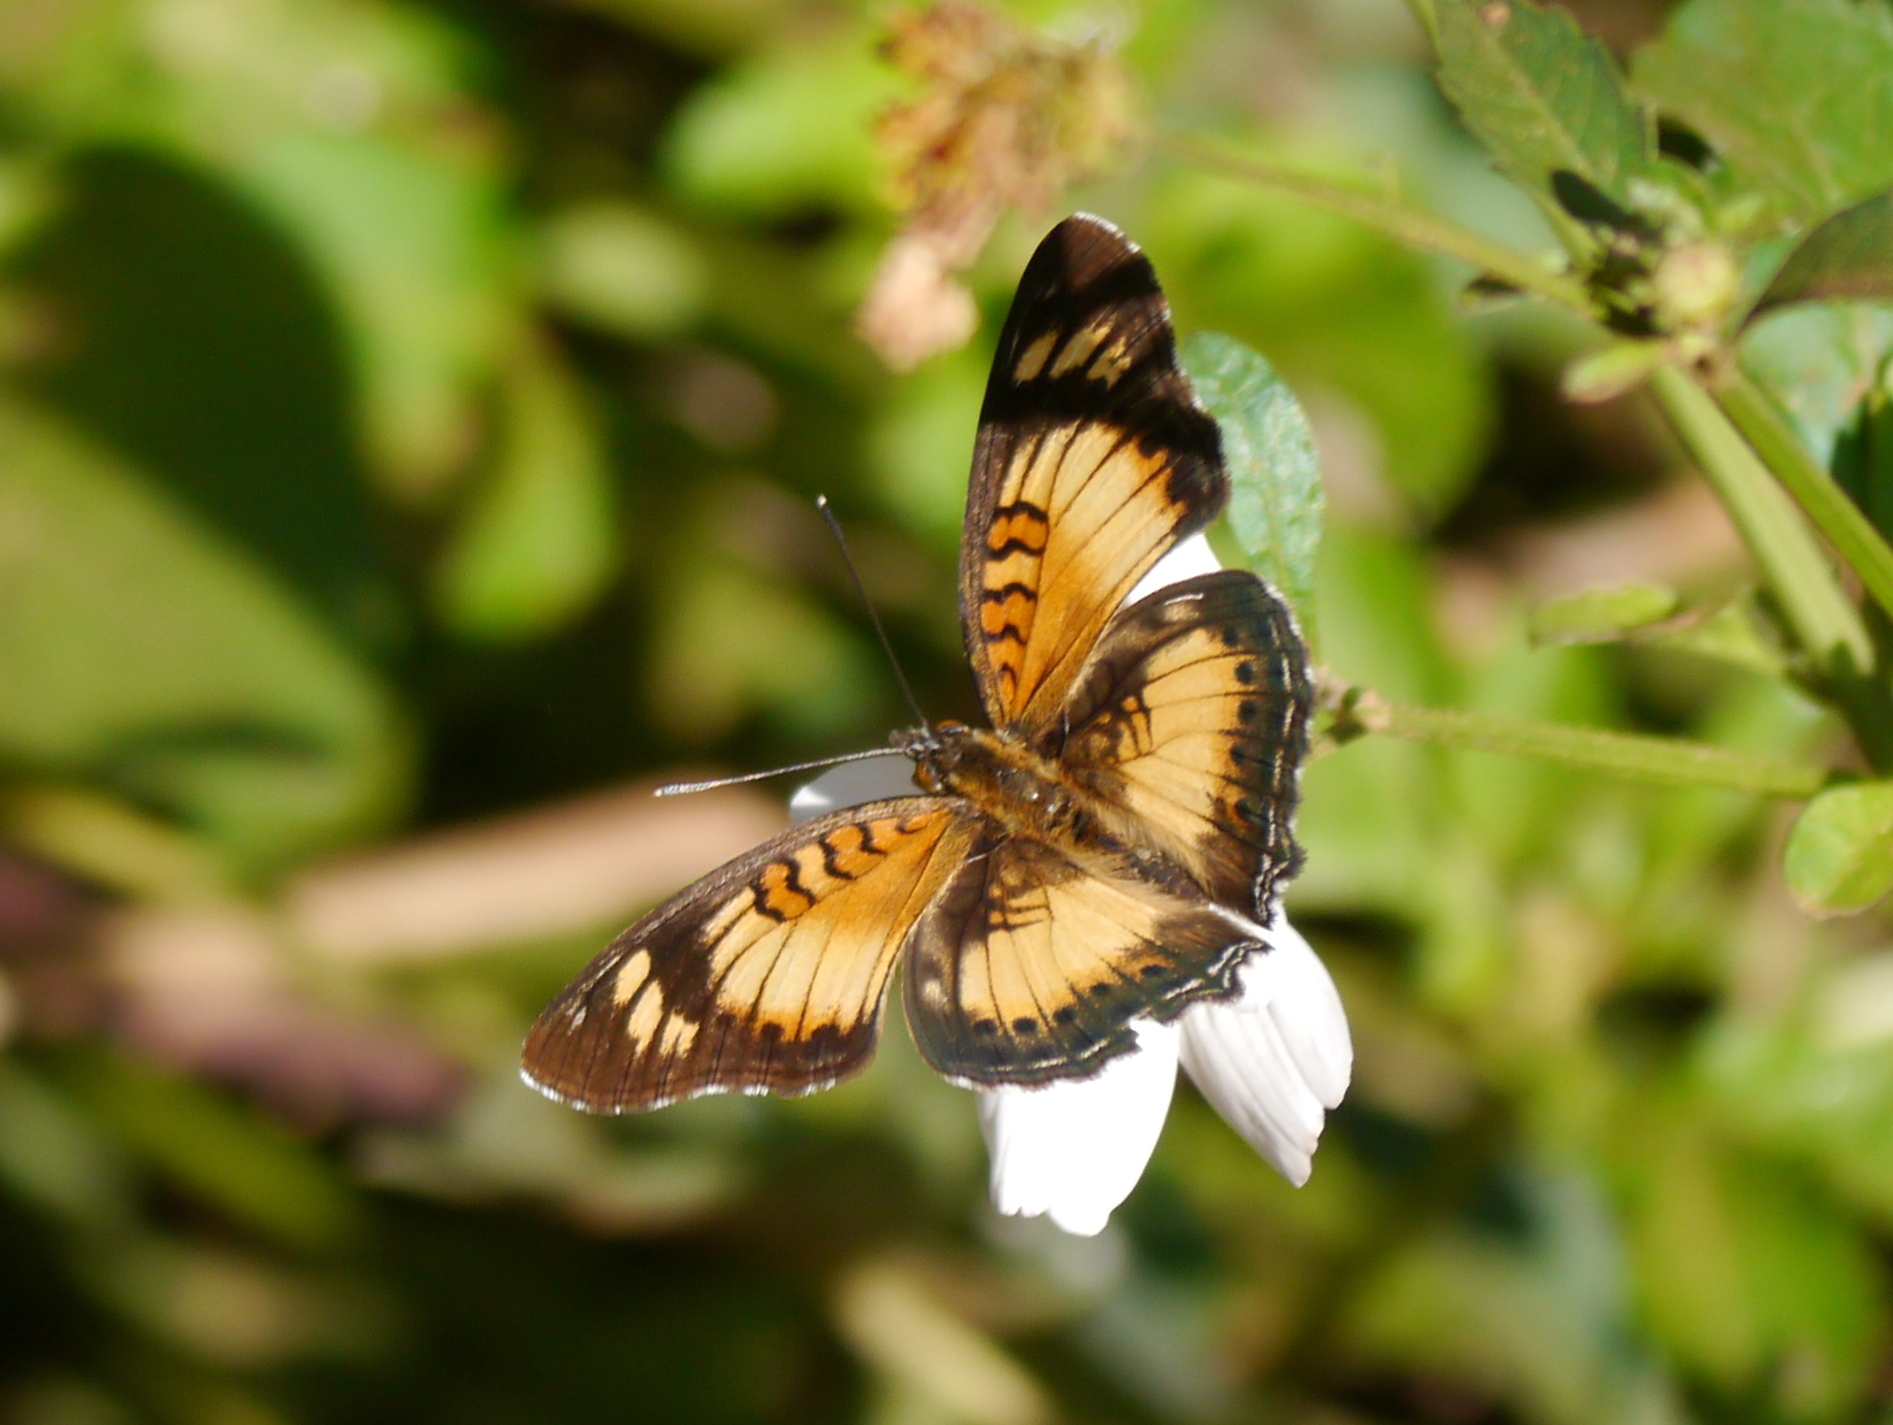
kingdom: Animalia
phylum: Arthropoda
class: Insecta
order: Lepidoptera
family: Nymphalidae
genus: Junonia
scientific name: Junonia sophia
